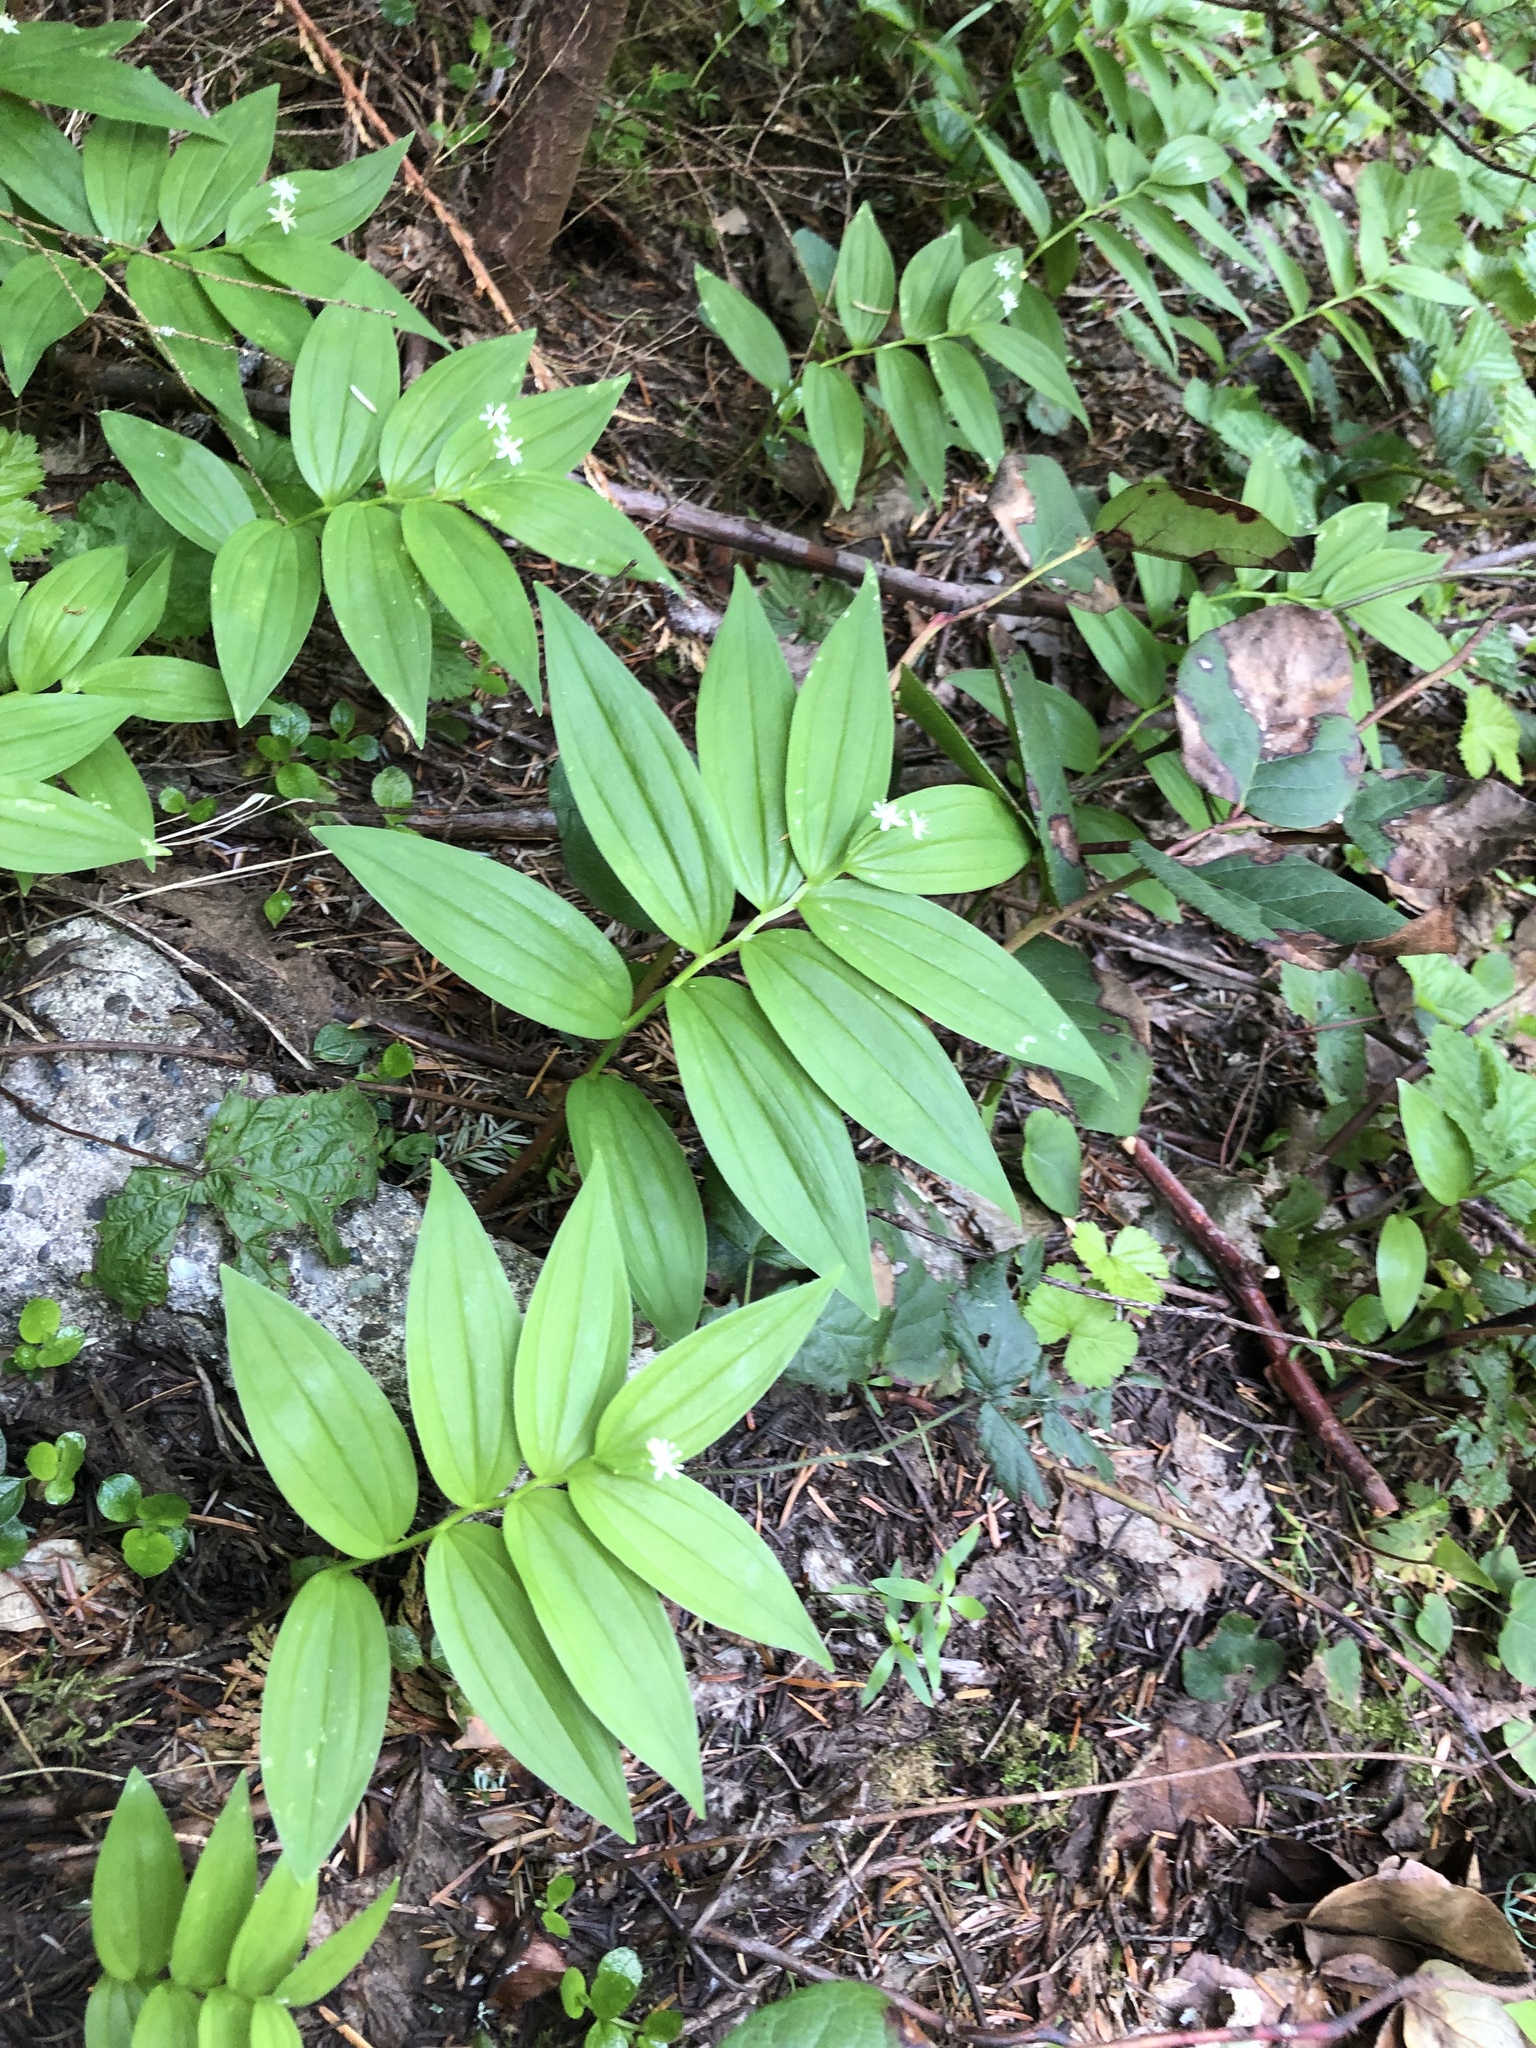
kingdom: Plantae
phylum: Tracheophyta
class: Liliopsida
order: Asparagales
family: Asparagaceae
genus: Maianthemum
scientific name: Maianthemum stellatum
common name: Little false solomon's seal
